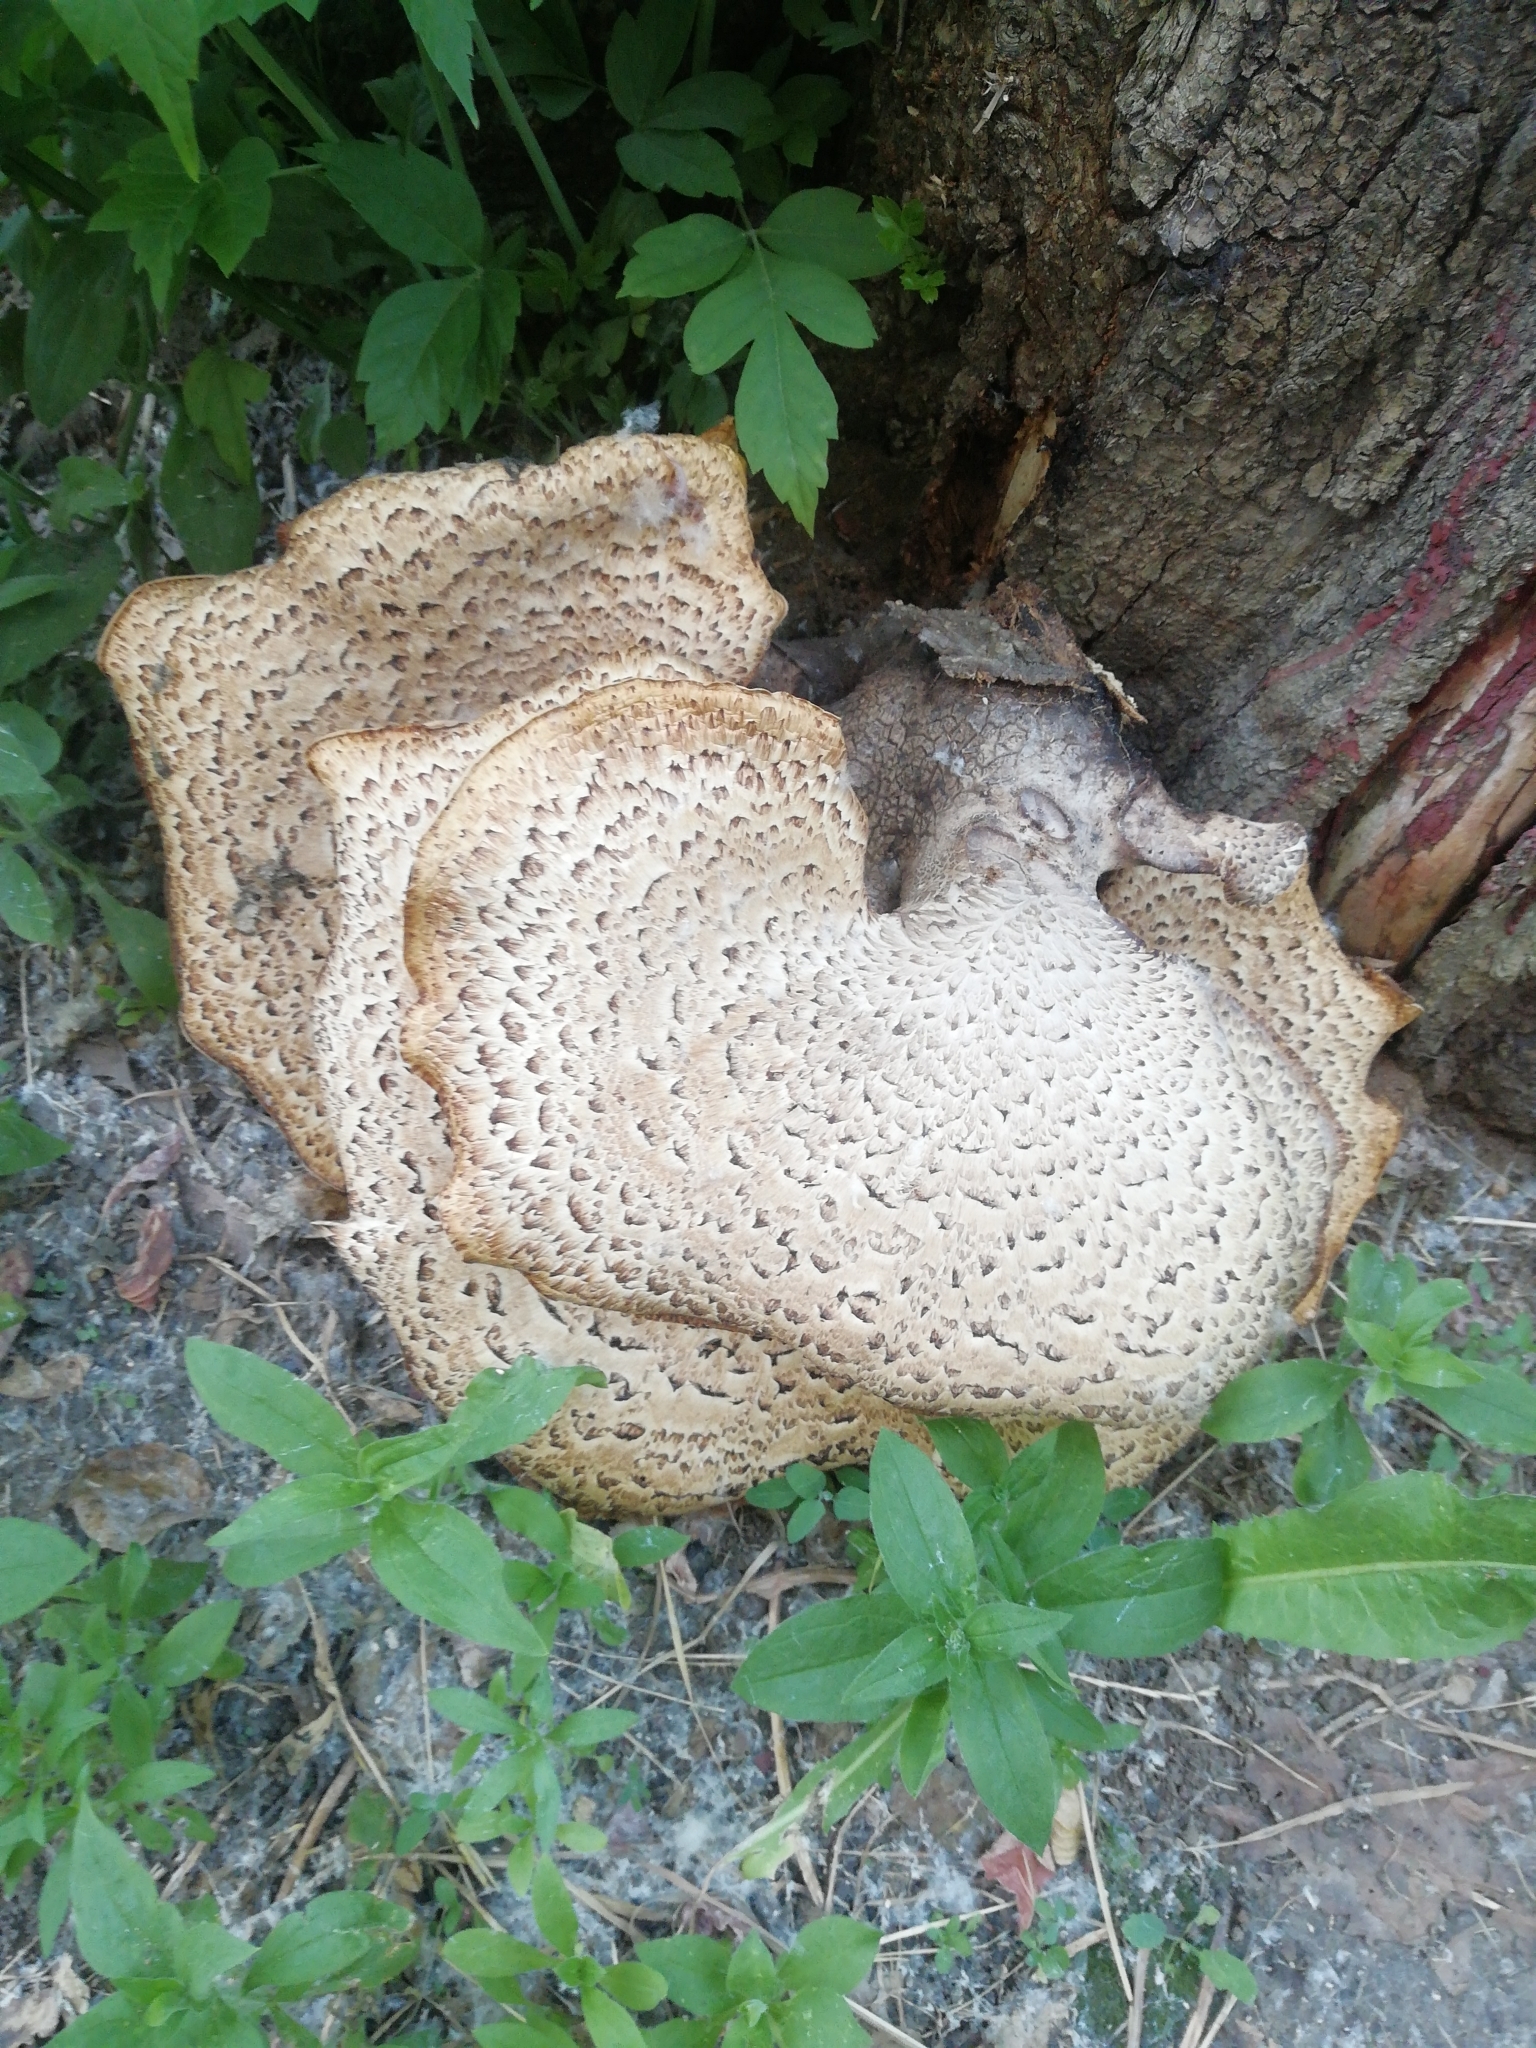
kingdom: Fungi
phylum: Basidiomycota
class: Agaricomycetes
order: Polyporales
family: Polyporaceae
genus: Cerioporus
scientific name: Cerioporus squamosus
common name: Dryad's saddle
